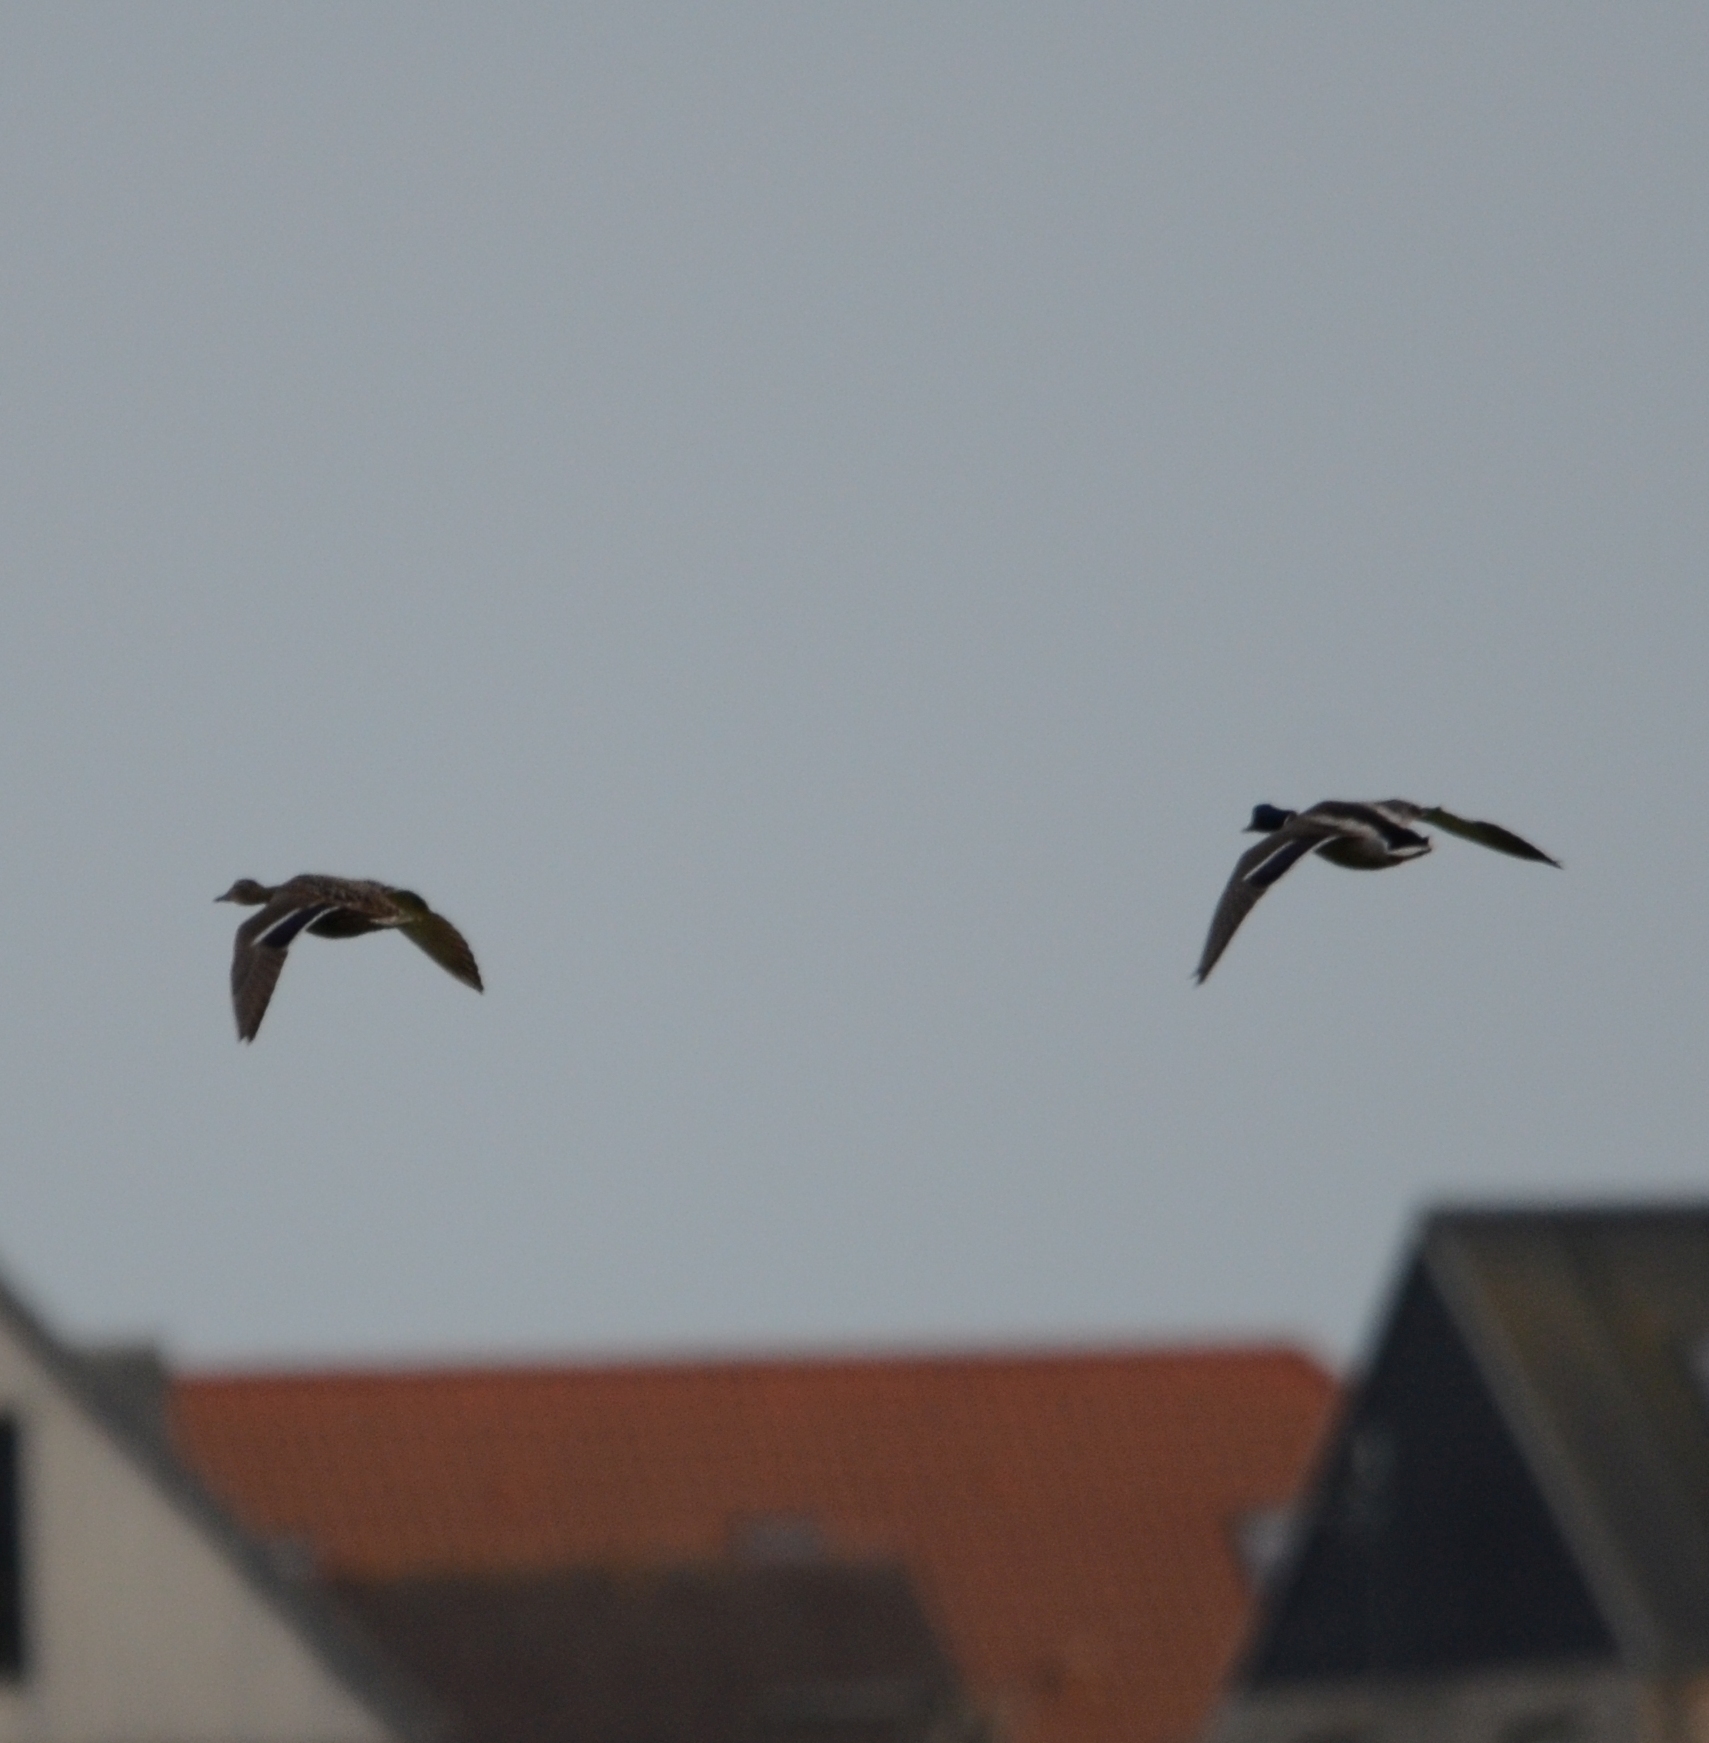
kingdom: Animalia
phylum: Chordata
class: Aves
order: Anseriformes
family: Anatidae
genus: Anas
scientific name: Anas platyrhynchos
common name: Mallard
